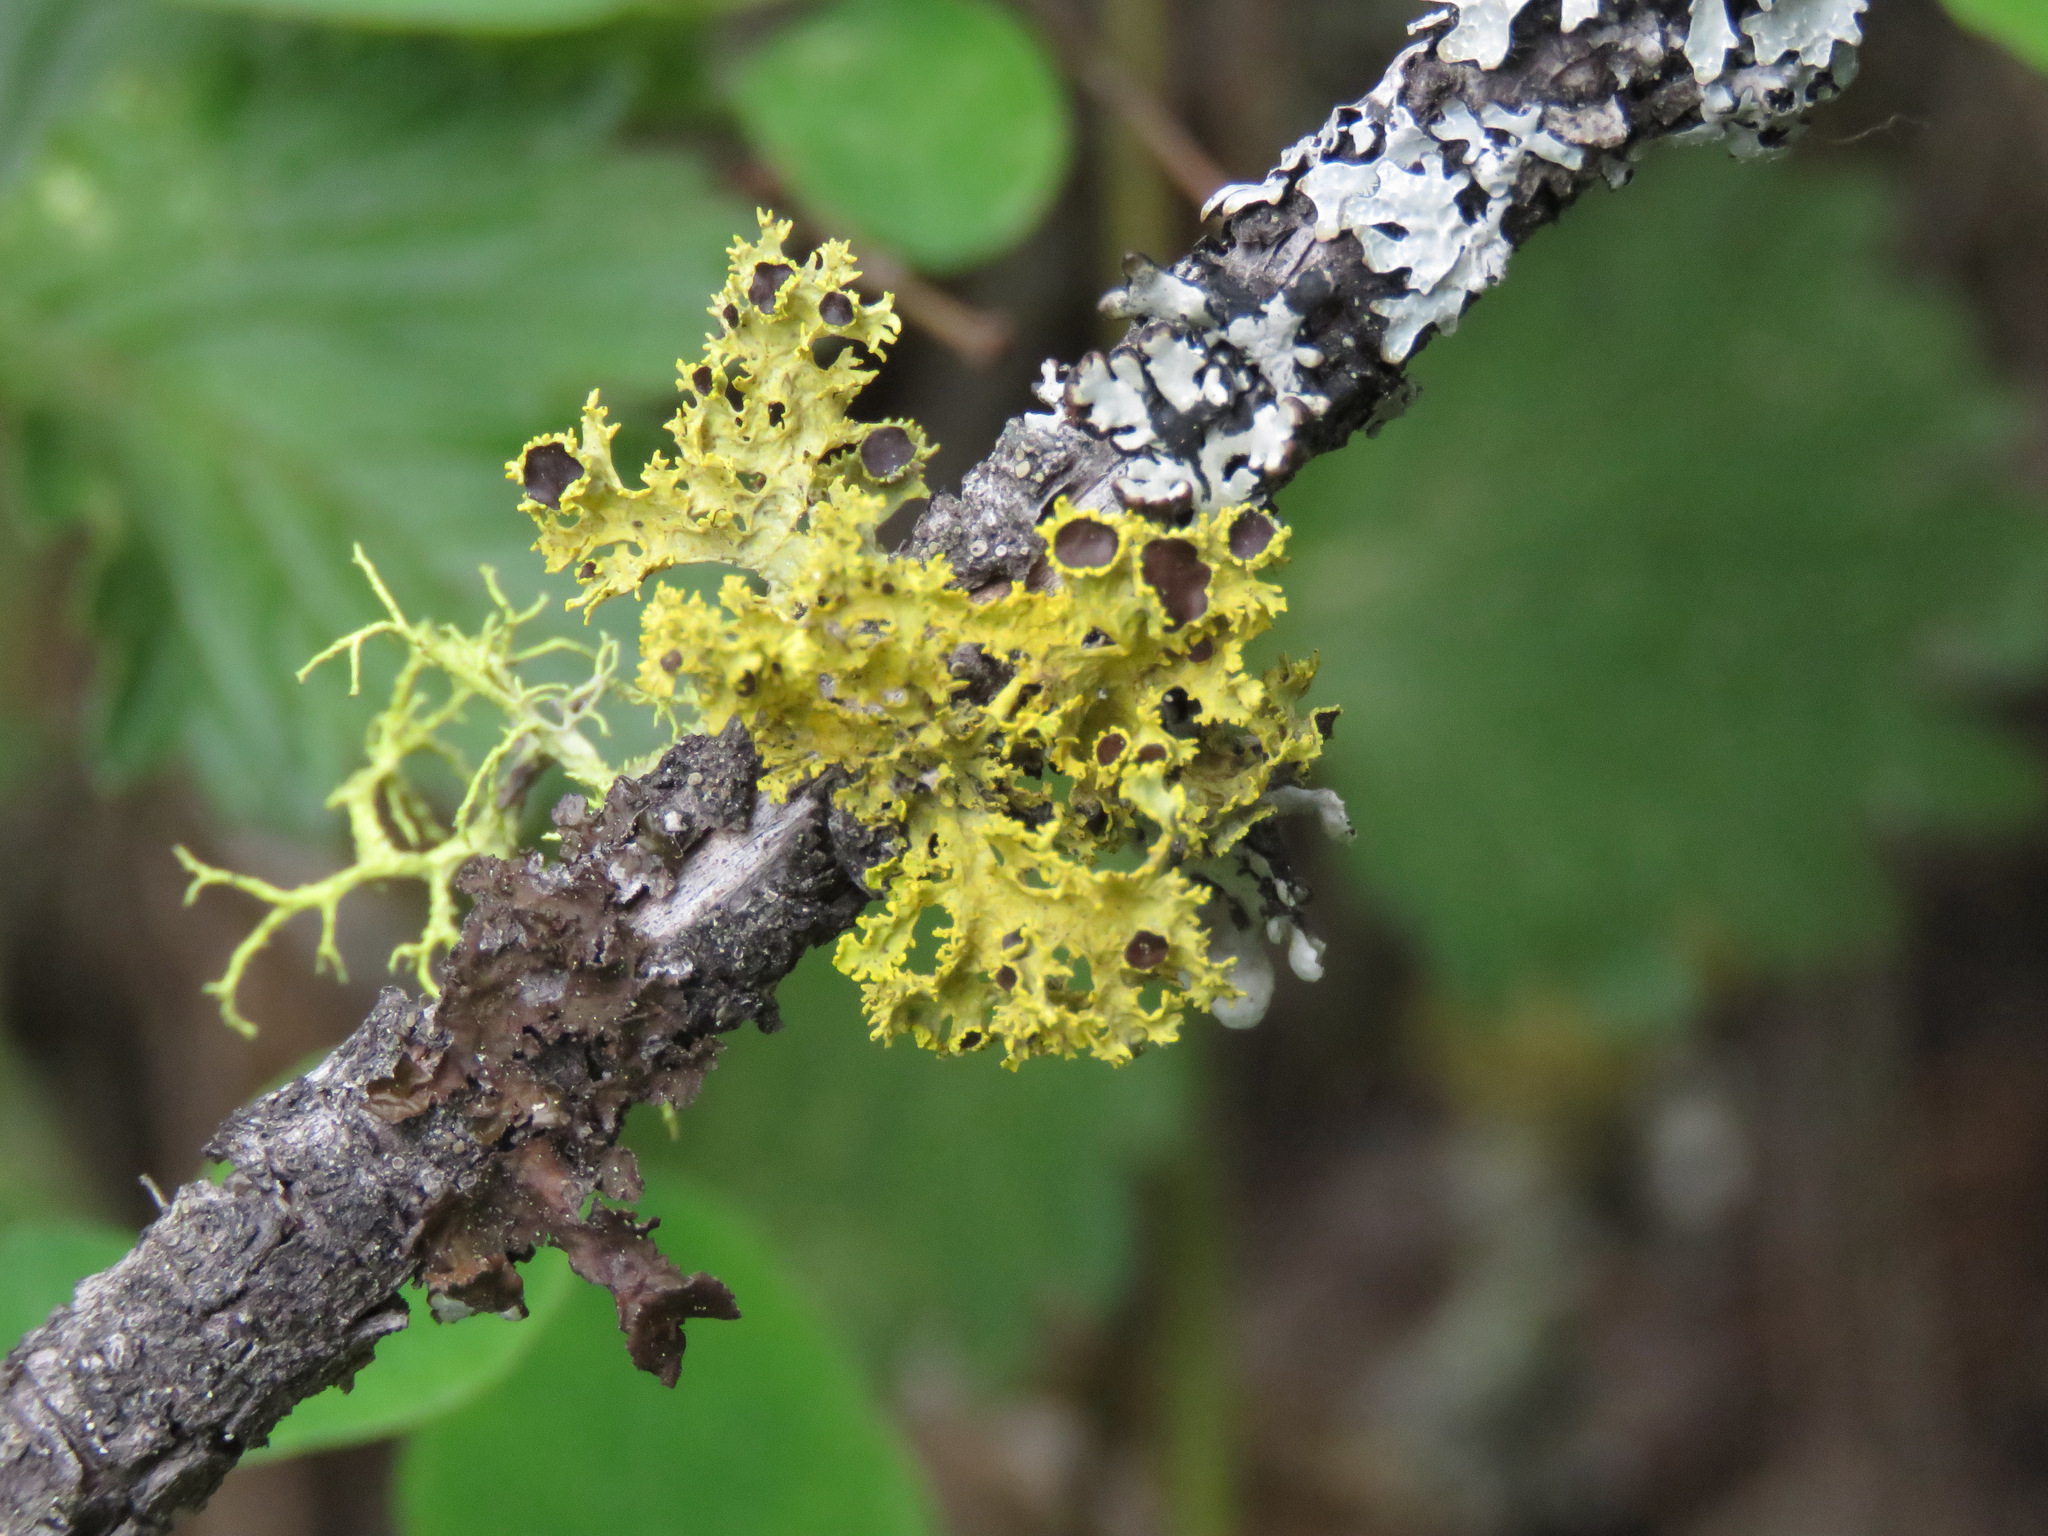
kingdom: Fungi
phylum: Ascomycota
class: Lecanoromycetes
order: Lecanorales
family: Parmeliaceae
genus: Vulpicida
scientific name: Vulpicida canadensis
